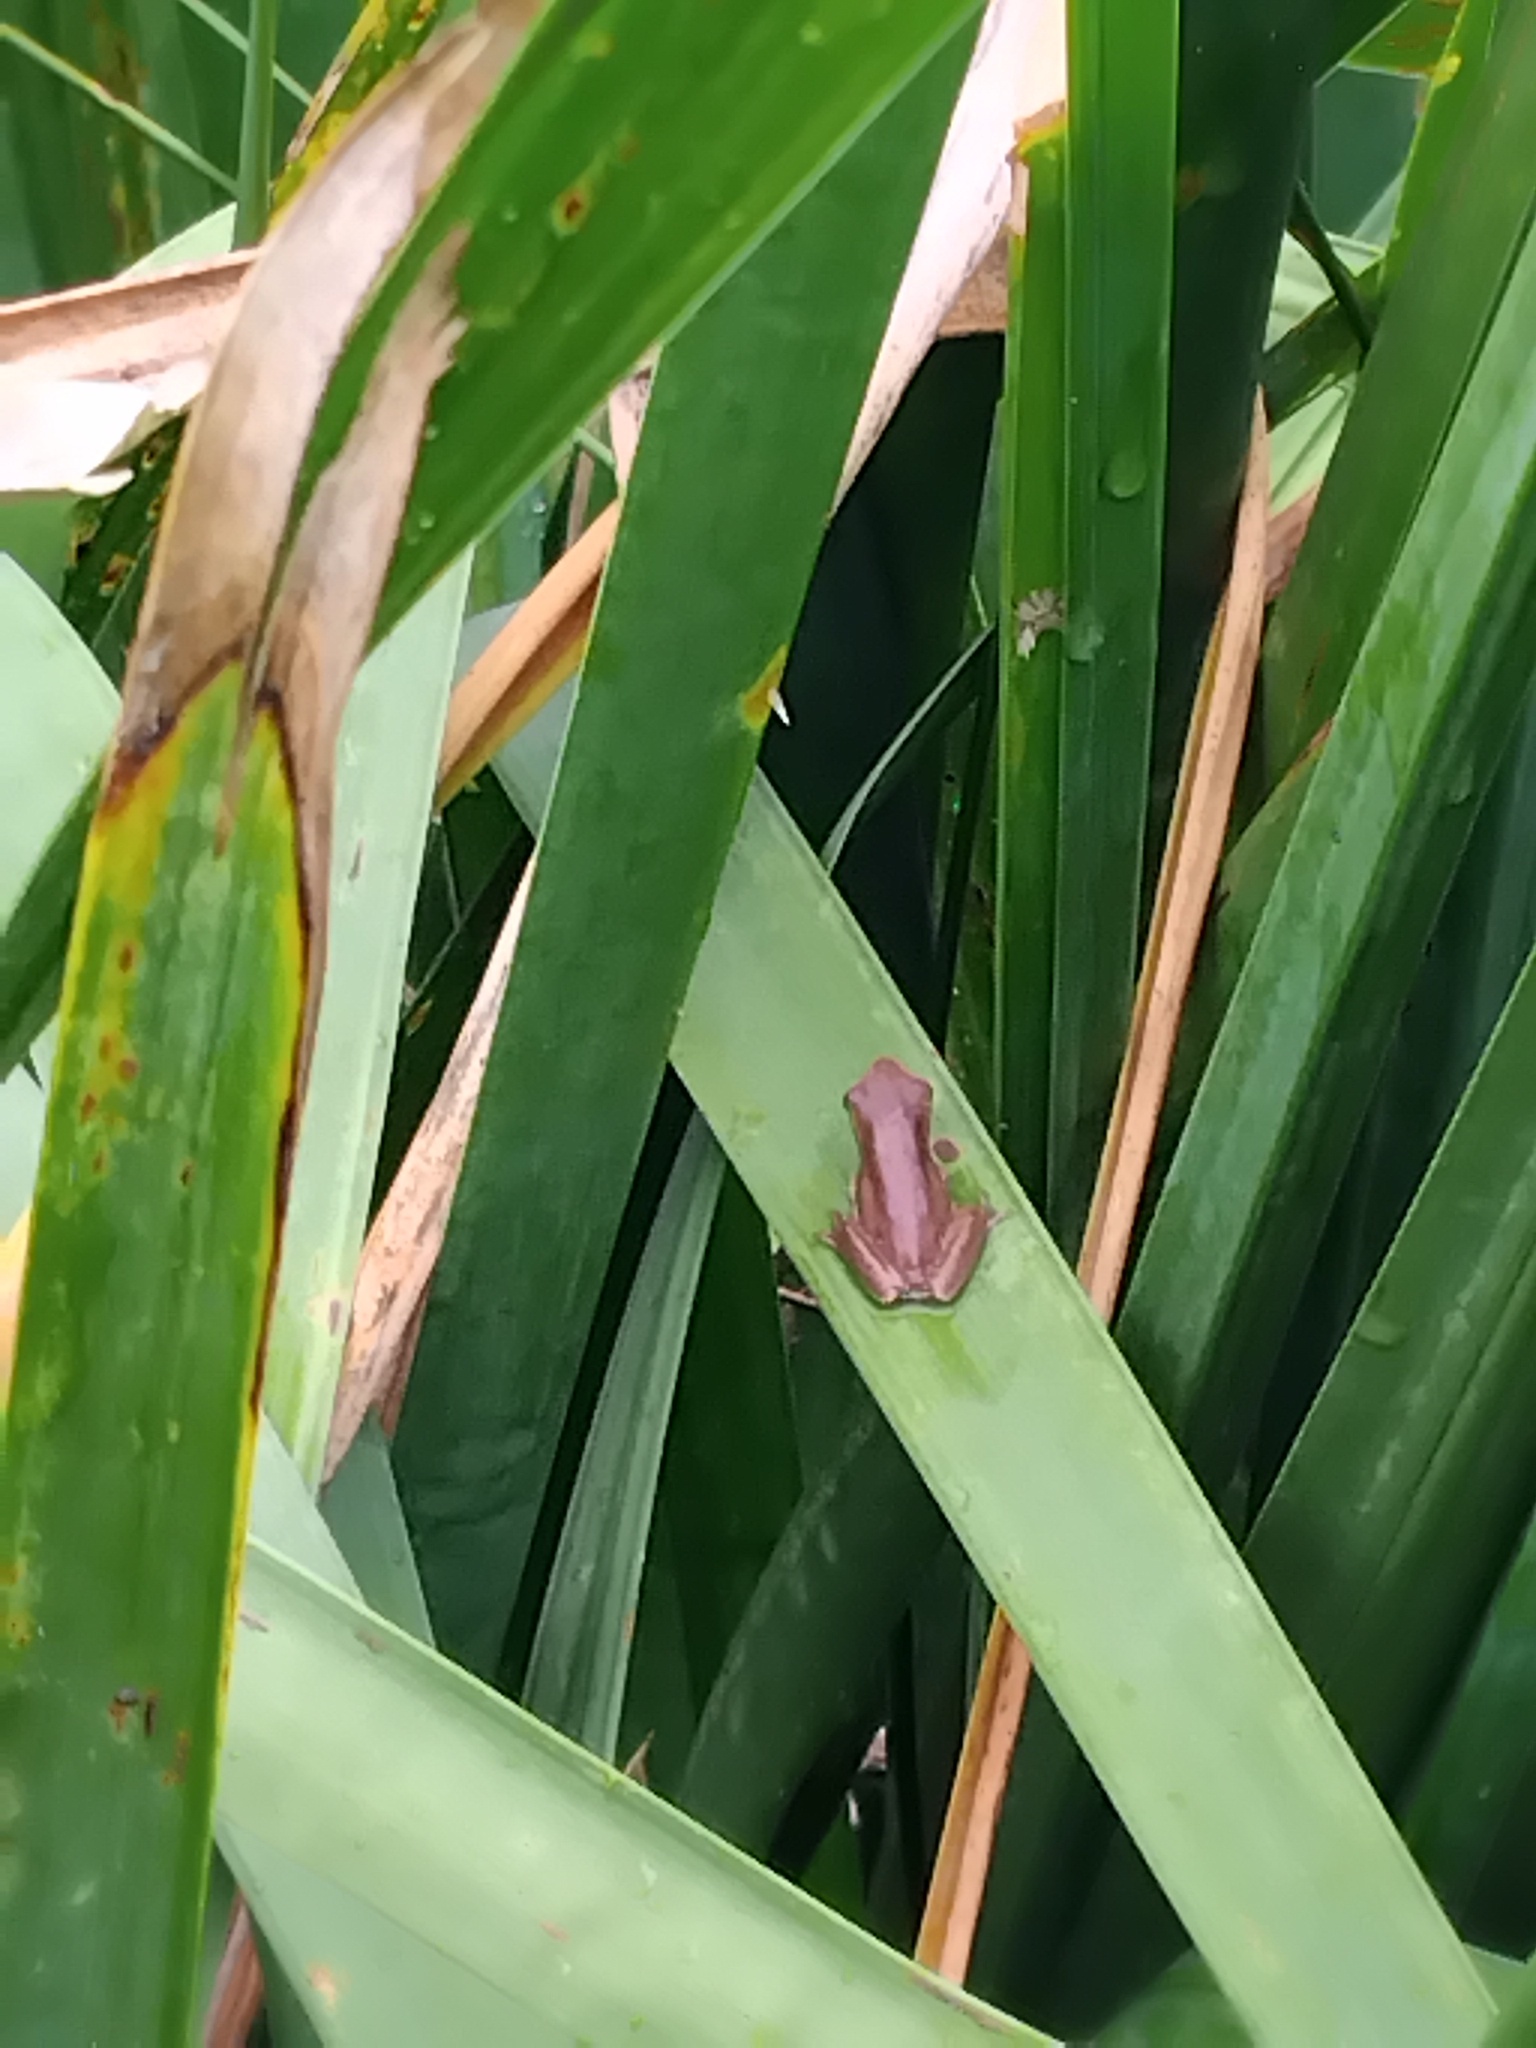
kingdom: Animalia
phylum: Chordata
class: Amphibia
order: Anura
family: Pelodryadidae
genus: Litoria
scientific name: Litoria fallax
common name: Eastern dwarf treefrog
